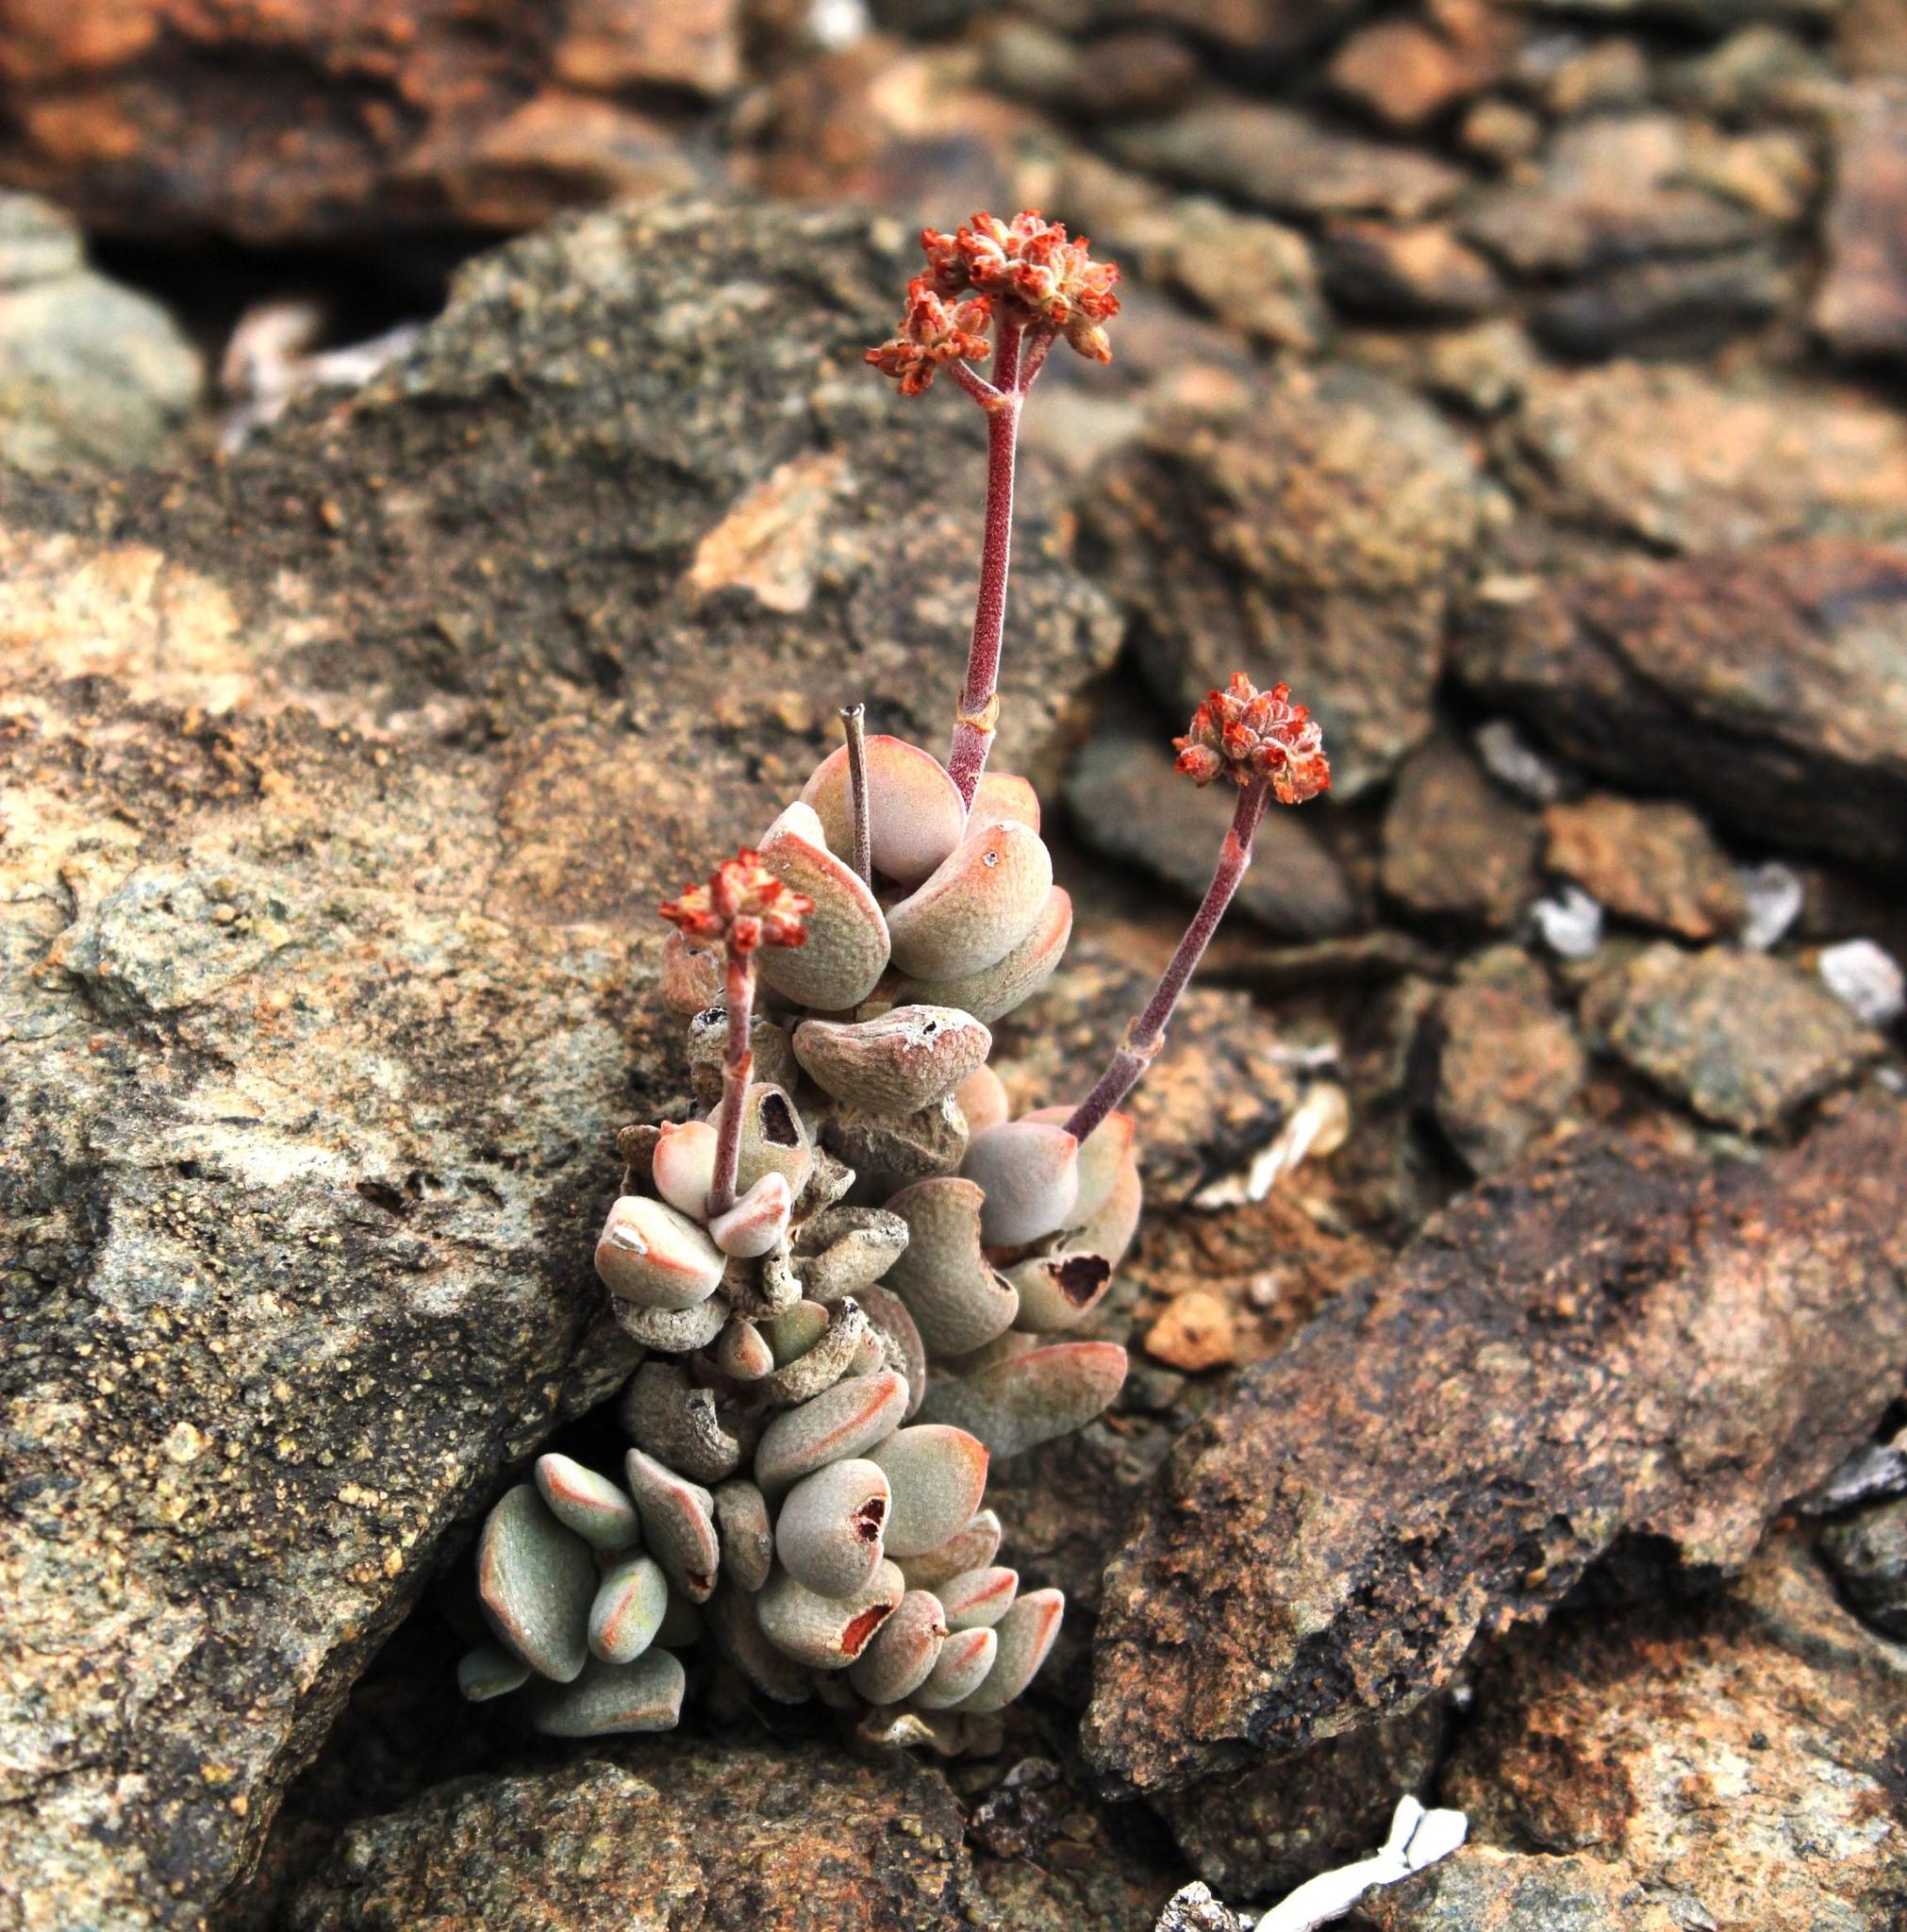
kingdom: Plantae
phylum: Tracheophyta
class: Magnoliopsida
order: Saxifragales
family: Crassulaceae
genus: Crassula
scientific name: Crassula sericea
